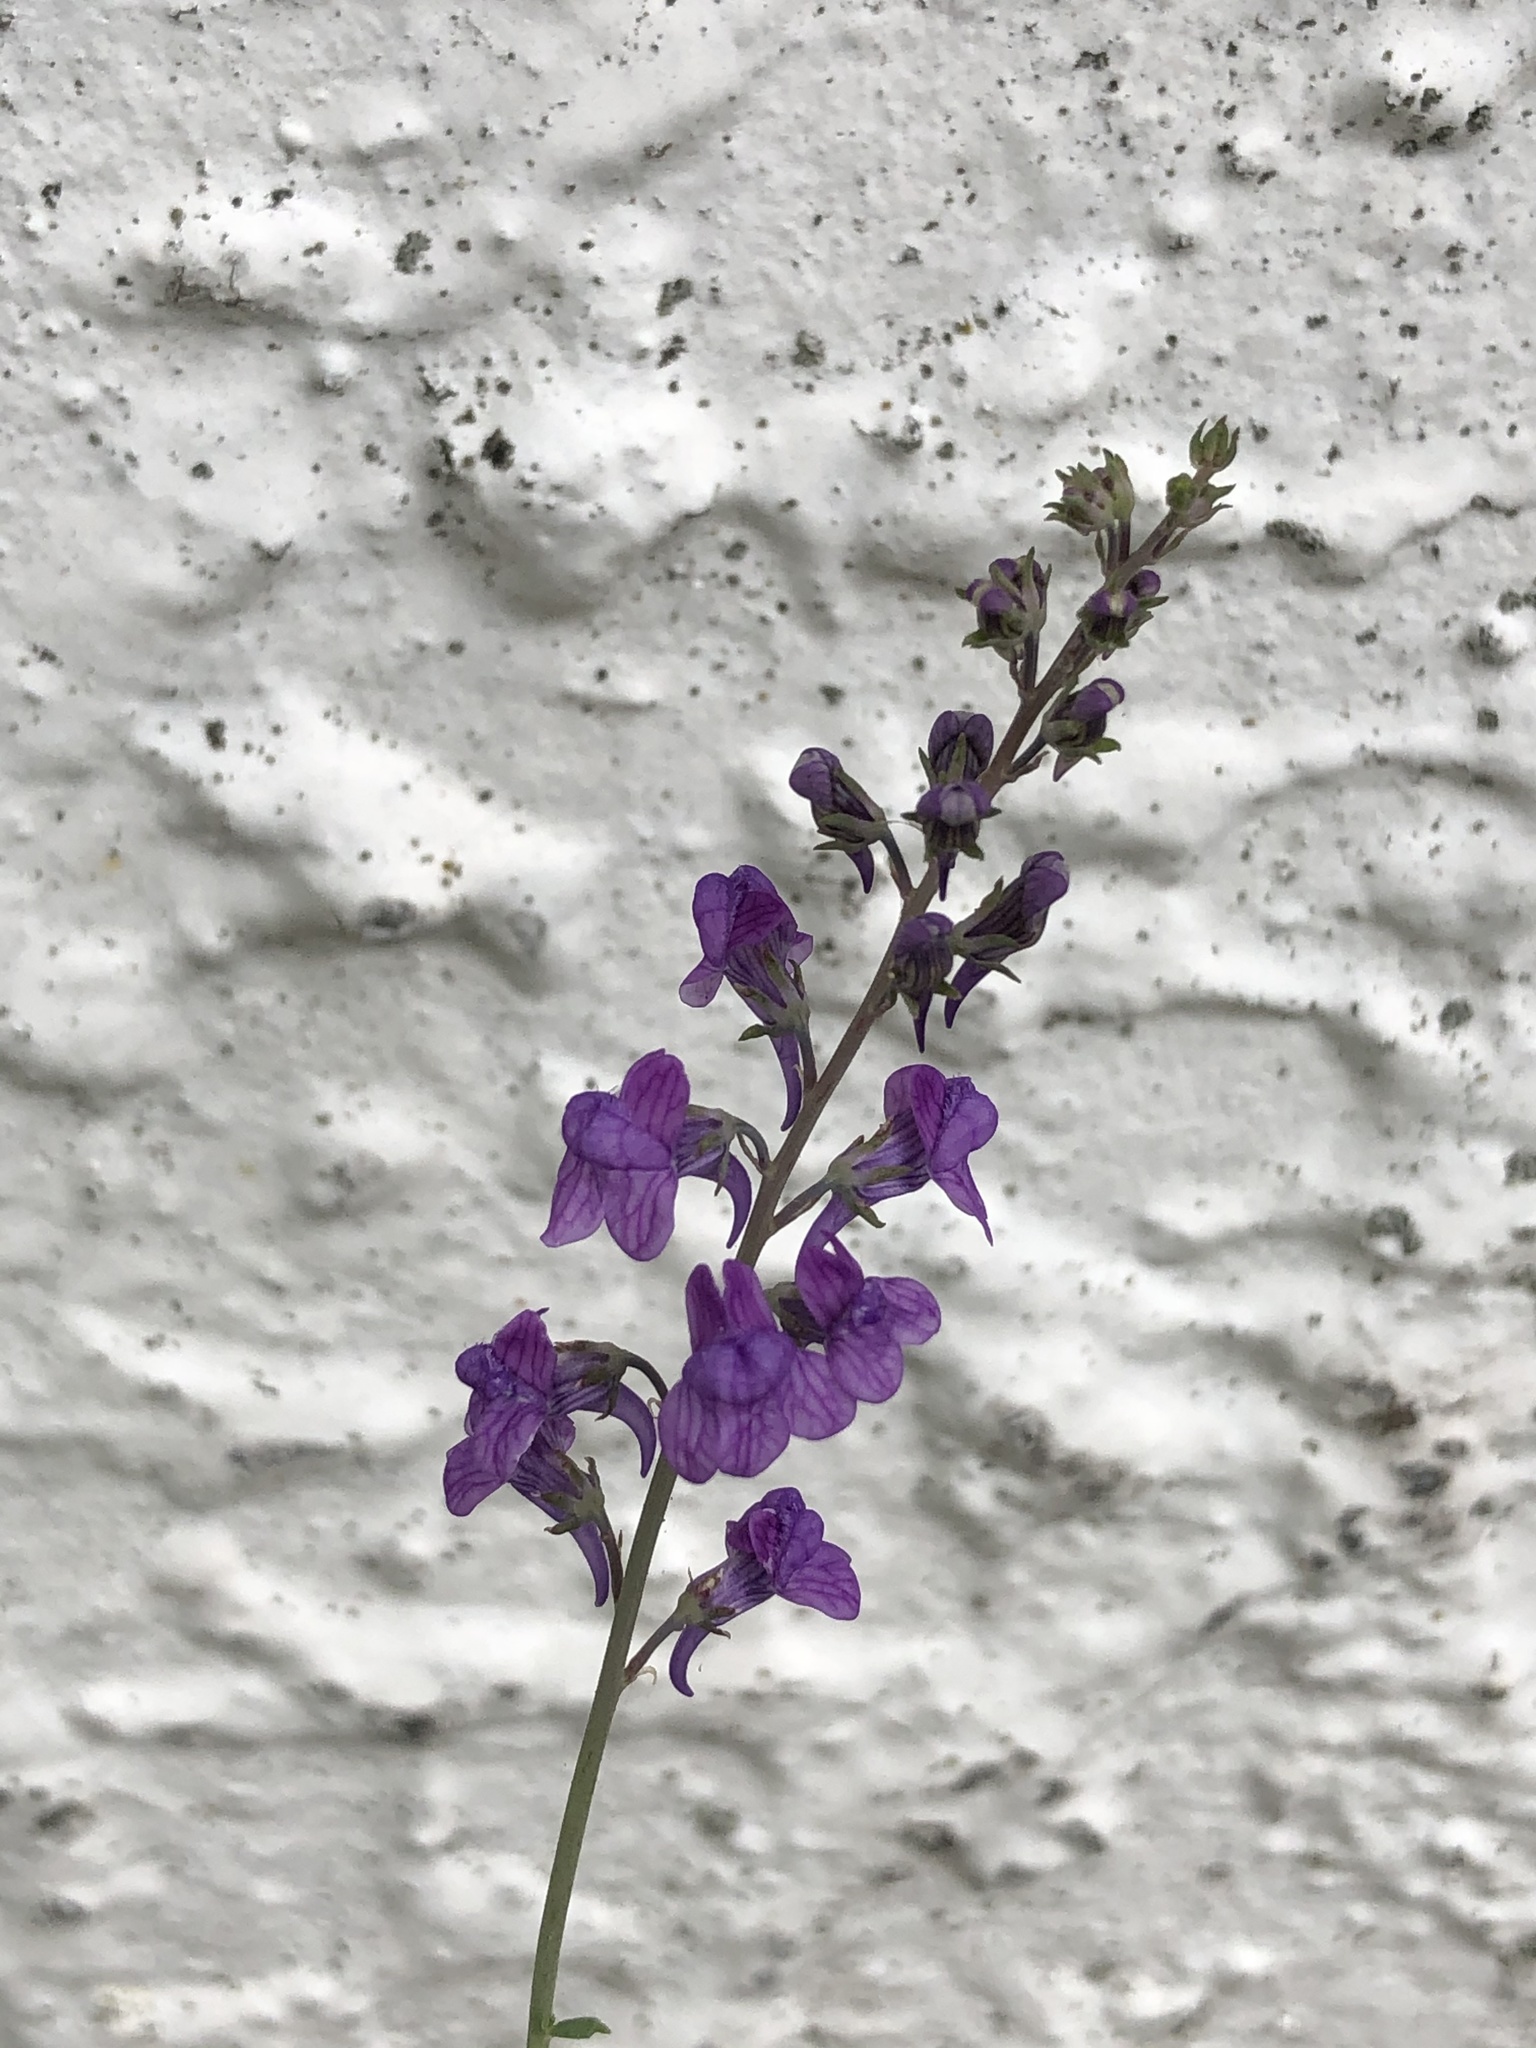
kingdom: Plantae
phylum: Tracheophyta
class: Magnoliopsida
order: Lamiales
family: Plantaginaceae
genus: Linaria
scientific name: Linaria purpurea
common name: Purple toadflax
